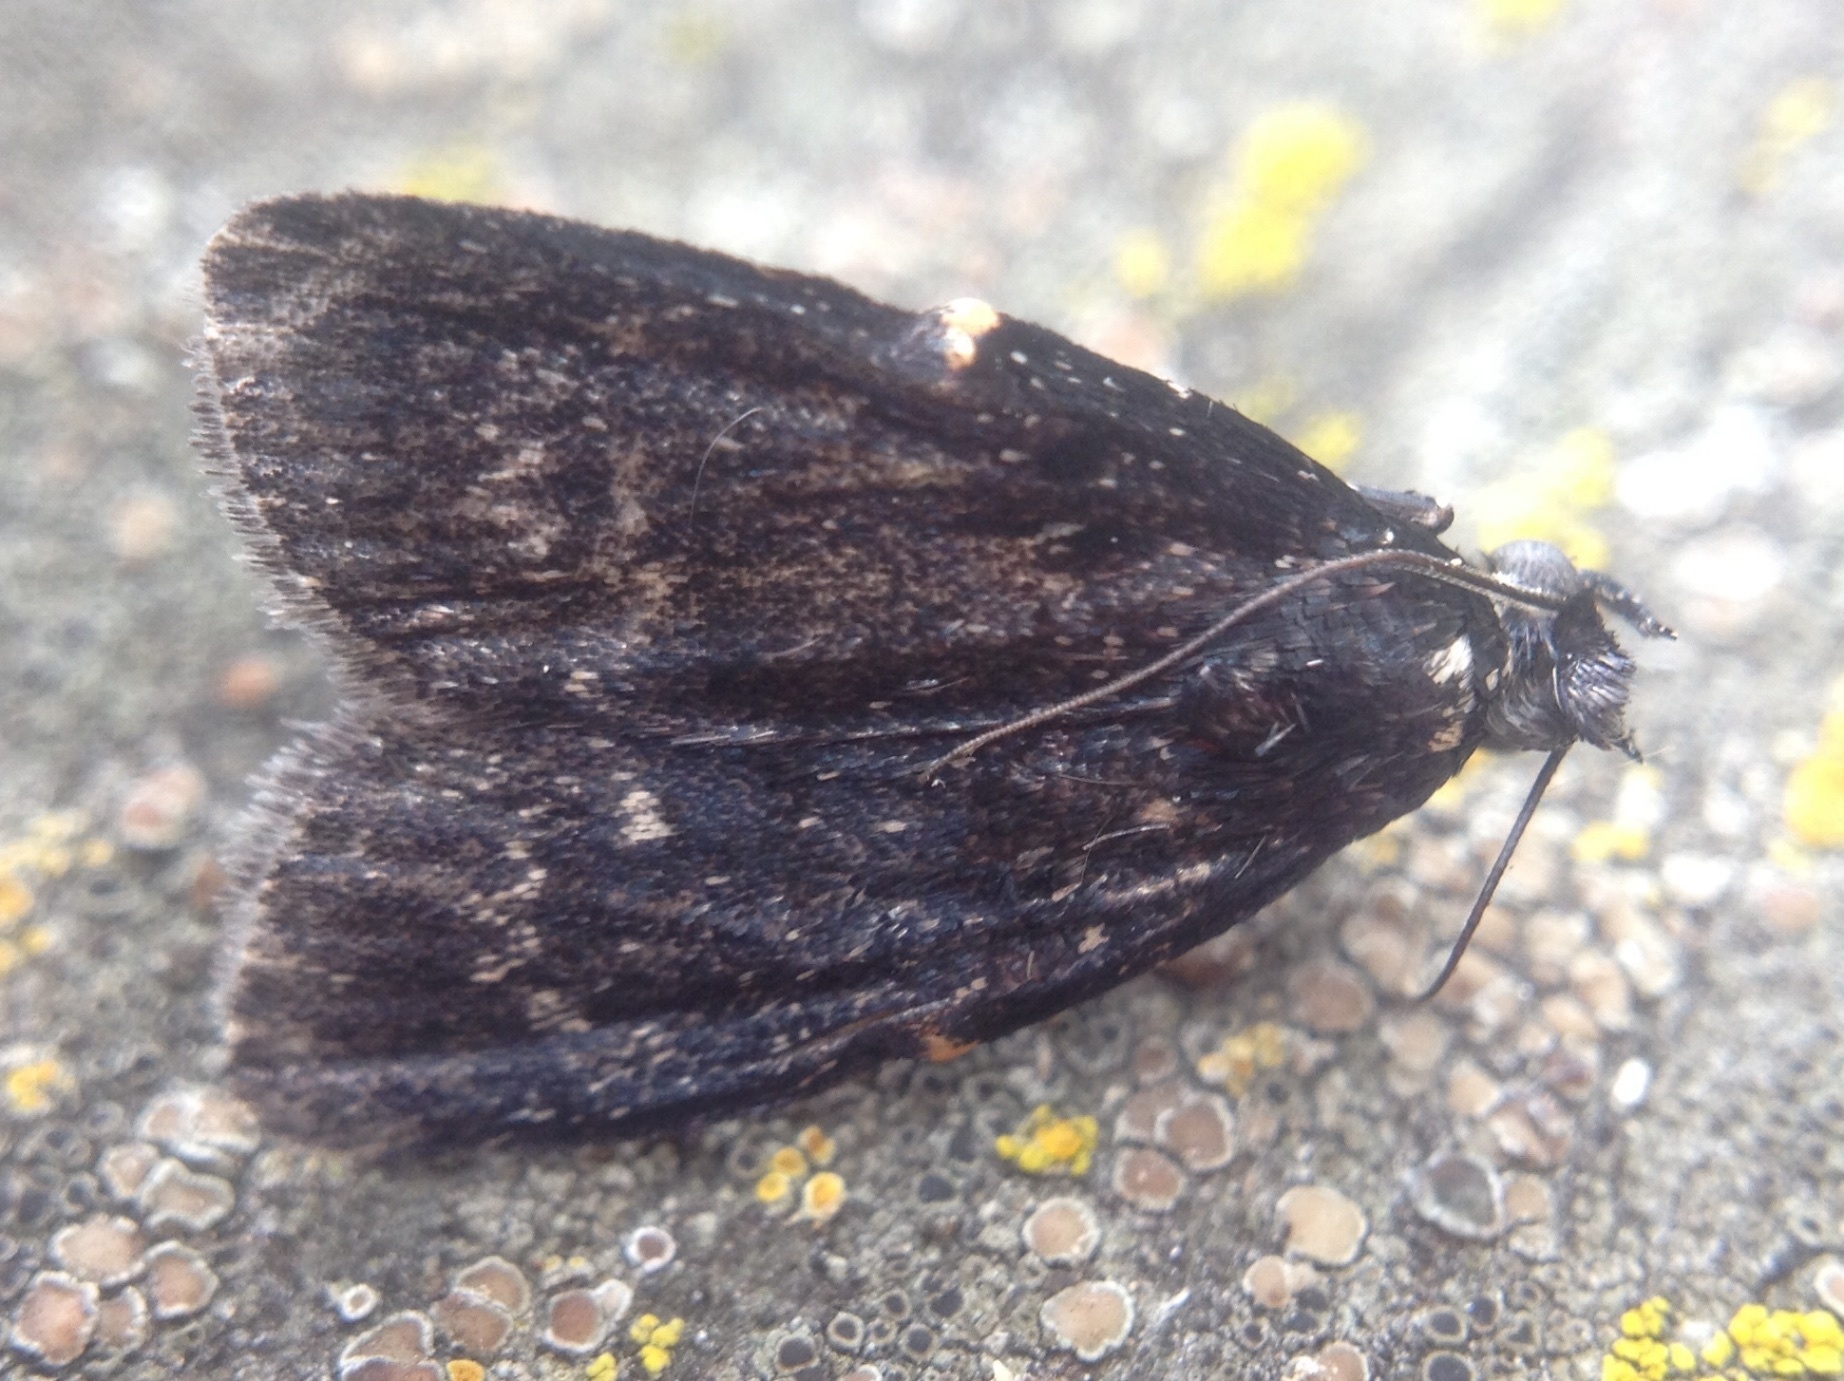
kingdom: Animalia
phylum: Arthropoda
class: Insecta
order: Lepidoptera
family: Pyralidae
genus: Stericta
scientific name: Stericta carbonalis
